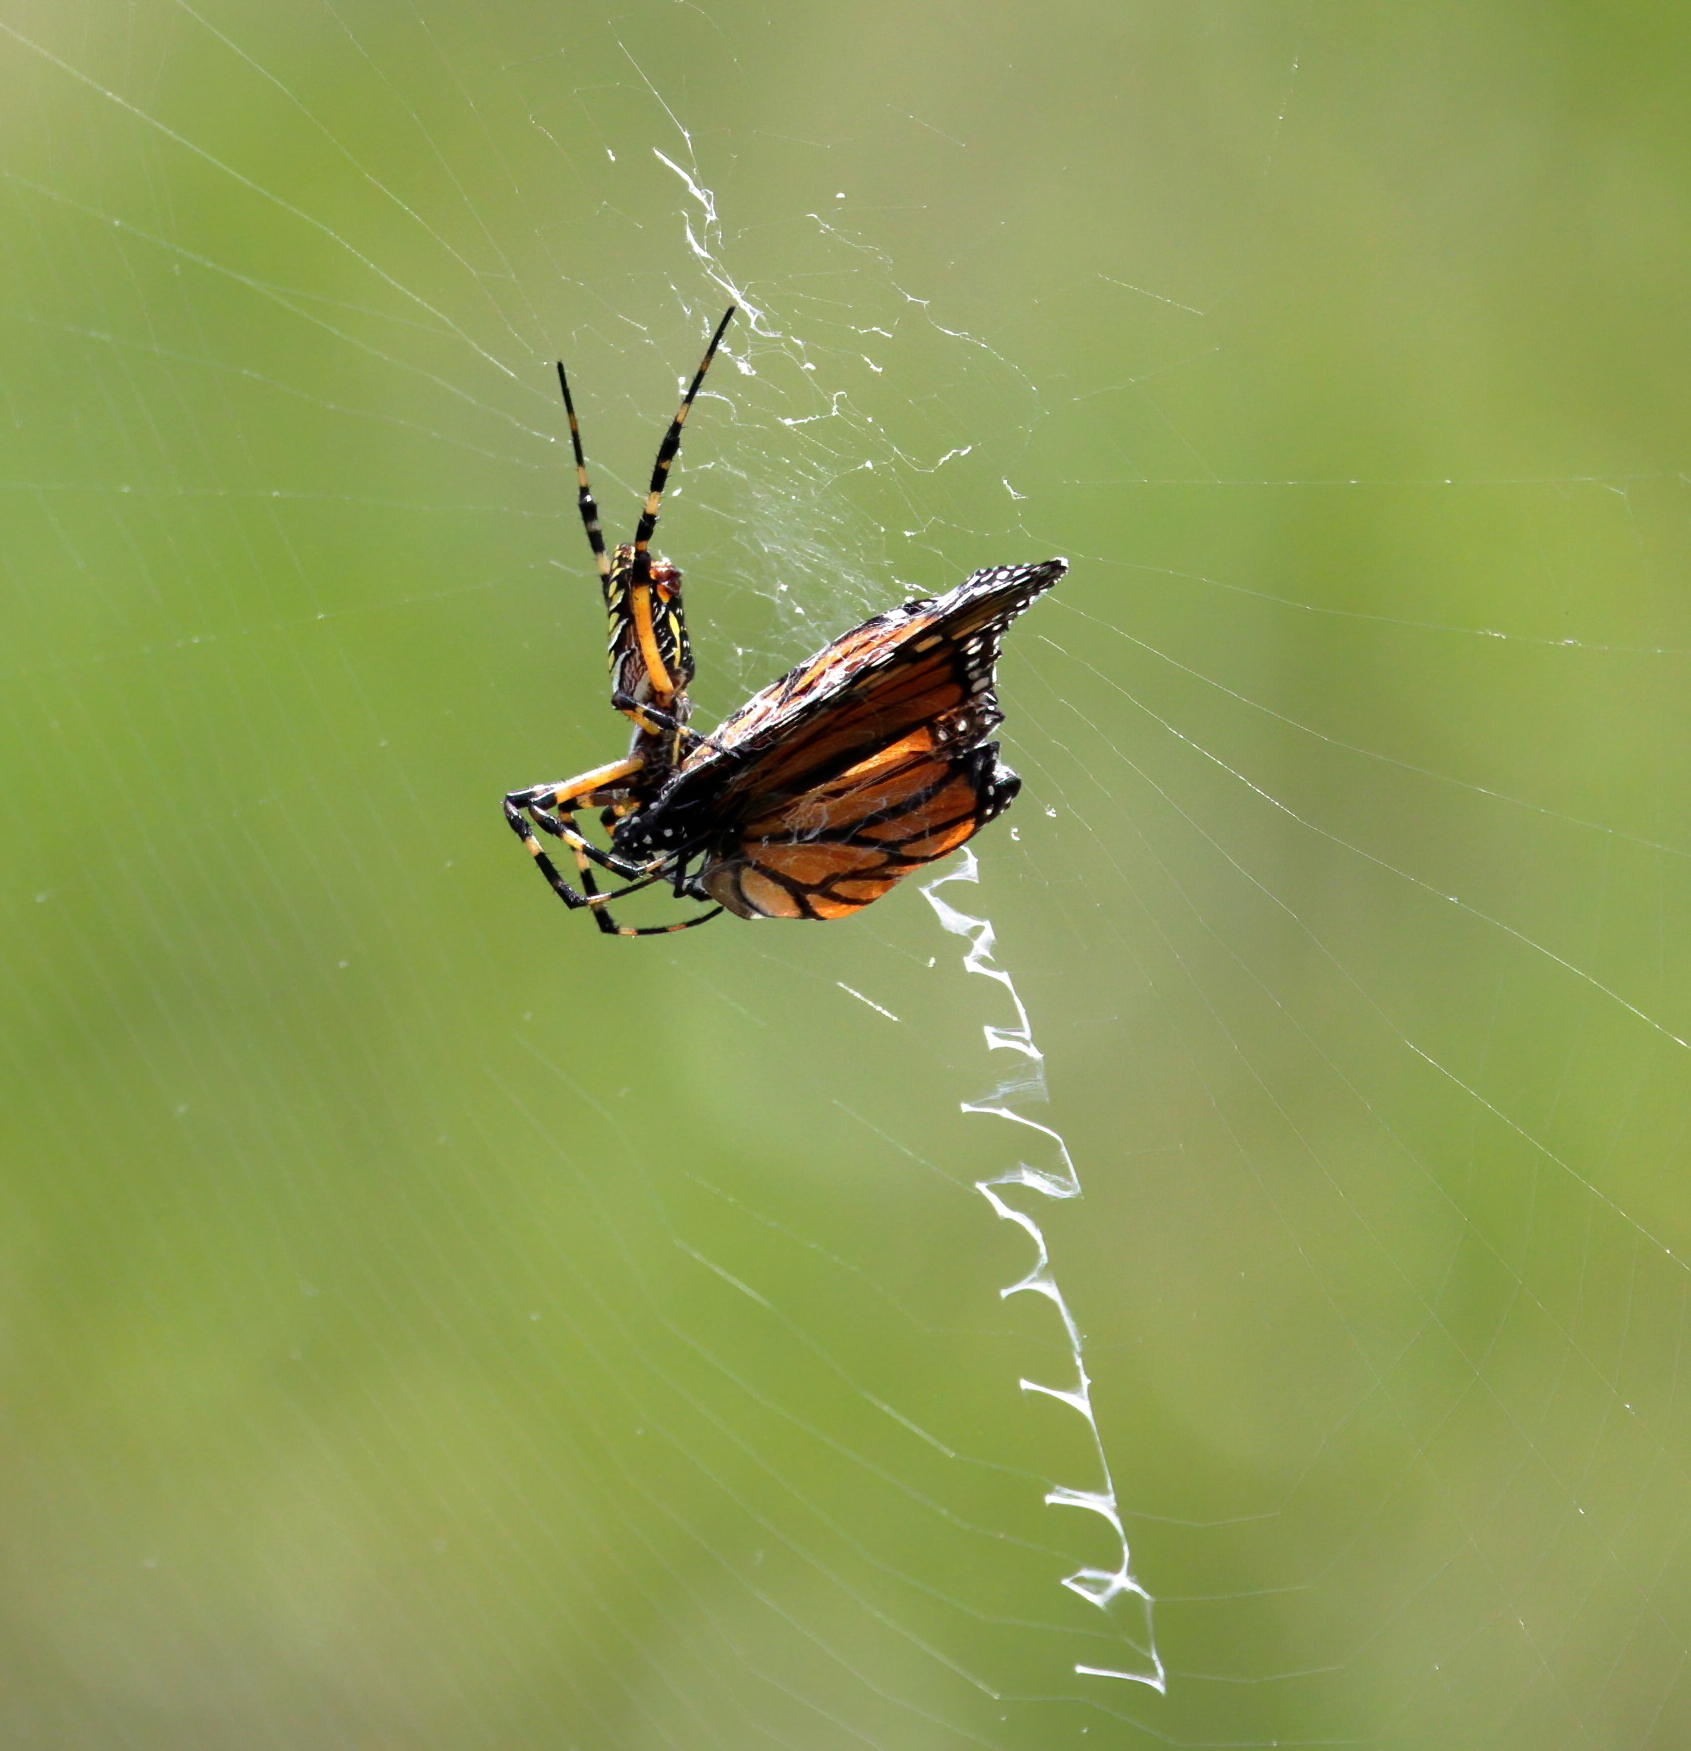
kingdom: Animalia
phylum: Arthropoda
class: Arachnida
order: Araneae
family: Araneidae
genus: Argiope
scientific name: Argiope aurantia
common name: Orb weavers
